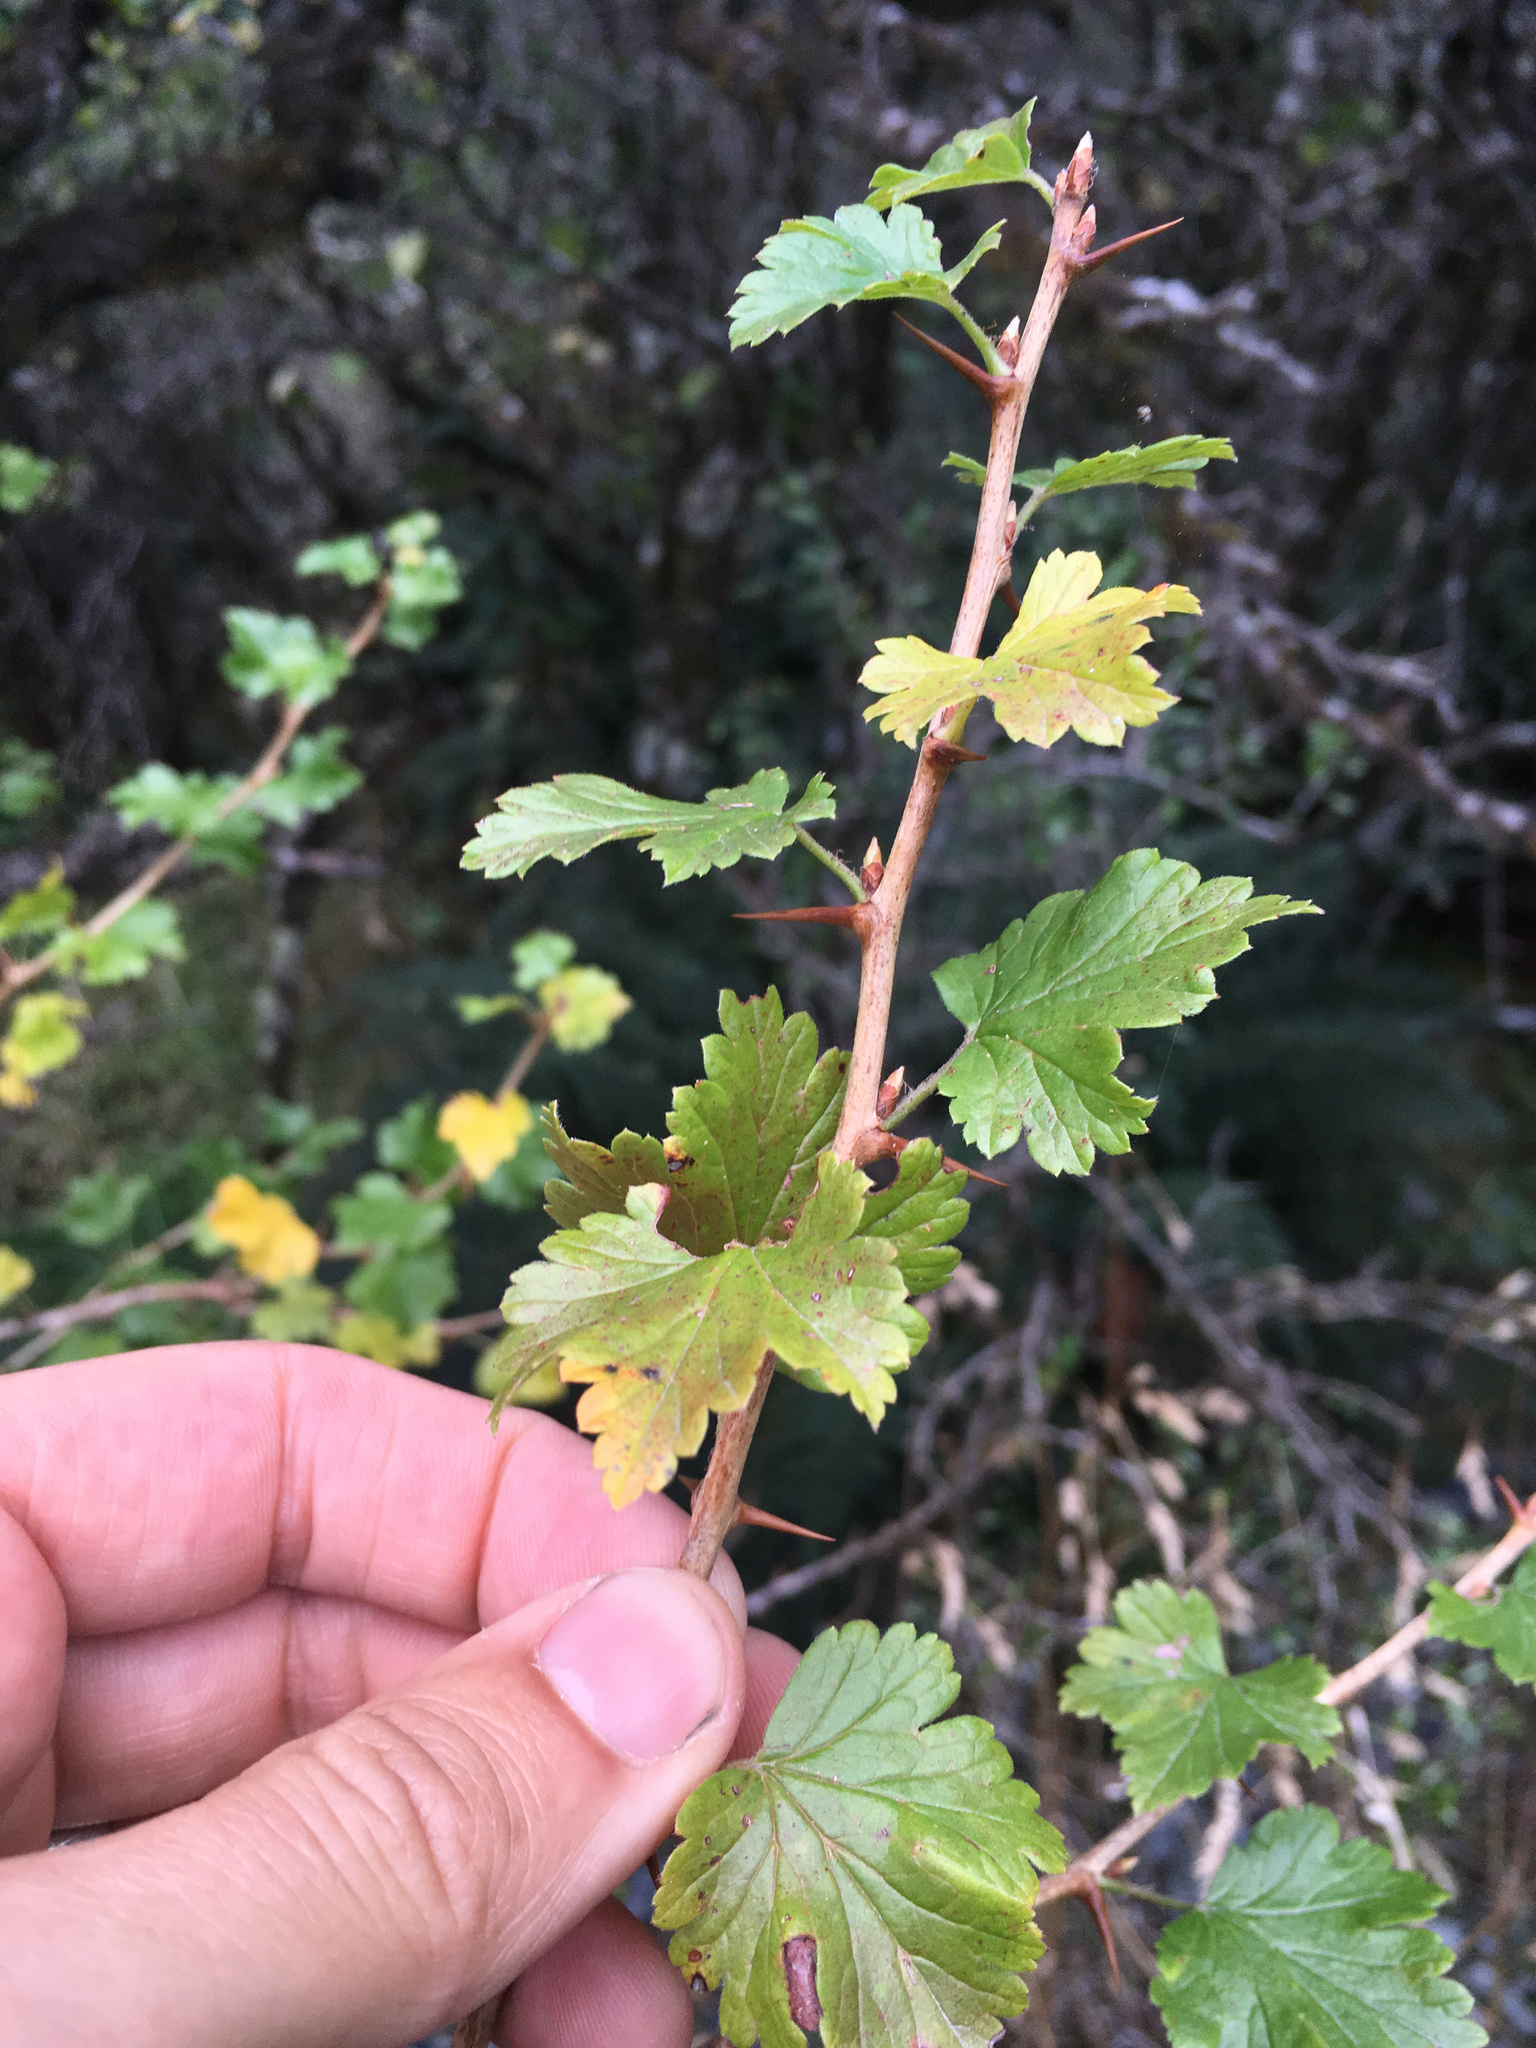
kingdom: Plantae
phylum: Tracheophyta
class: Magnoliopsida
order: Saxifragales
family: Grossulariaceae
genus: Ribes
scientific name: Ribes uva-crispa
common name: Gooseberry
